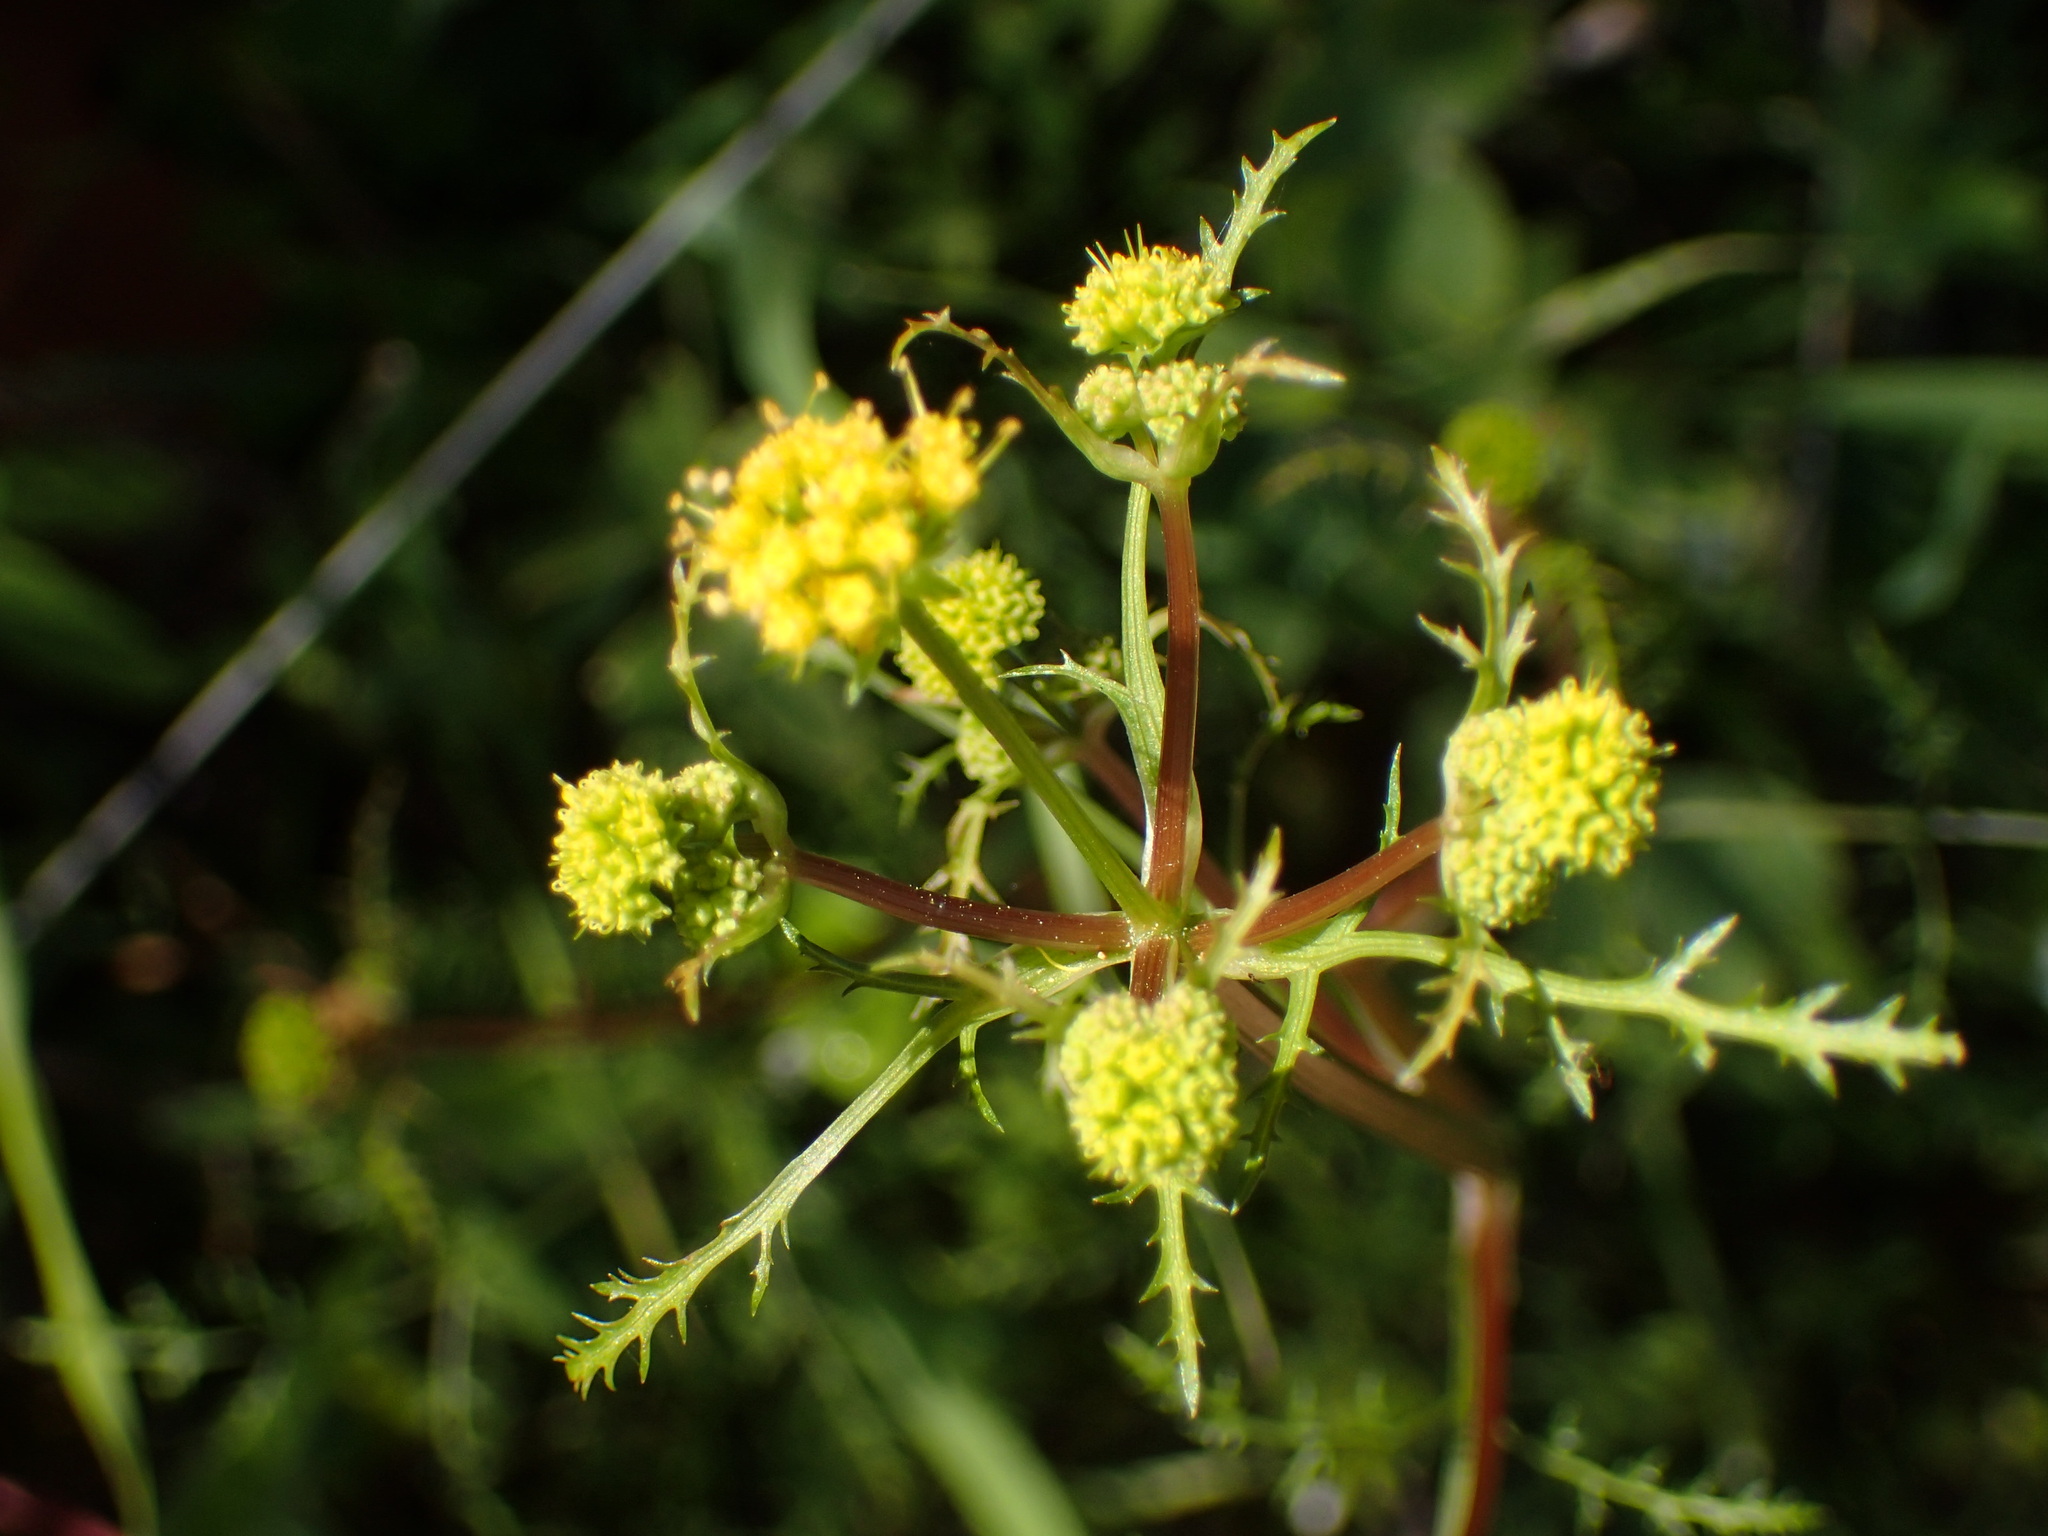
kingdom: Plantae
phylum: Tracheophyta
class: Magnoliopsida
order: Apiales
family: Apiaceae
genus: Sanicula
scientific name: Sanicula tuberosa
